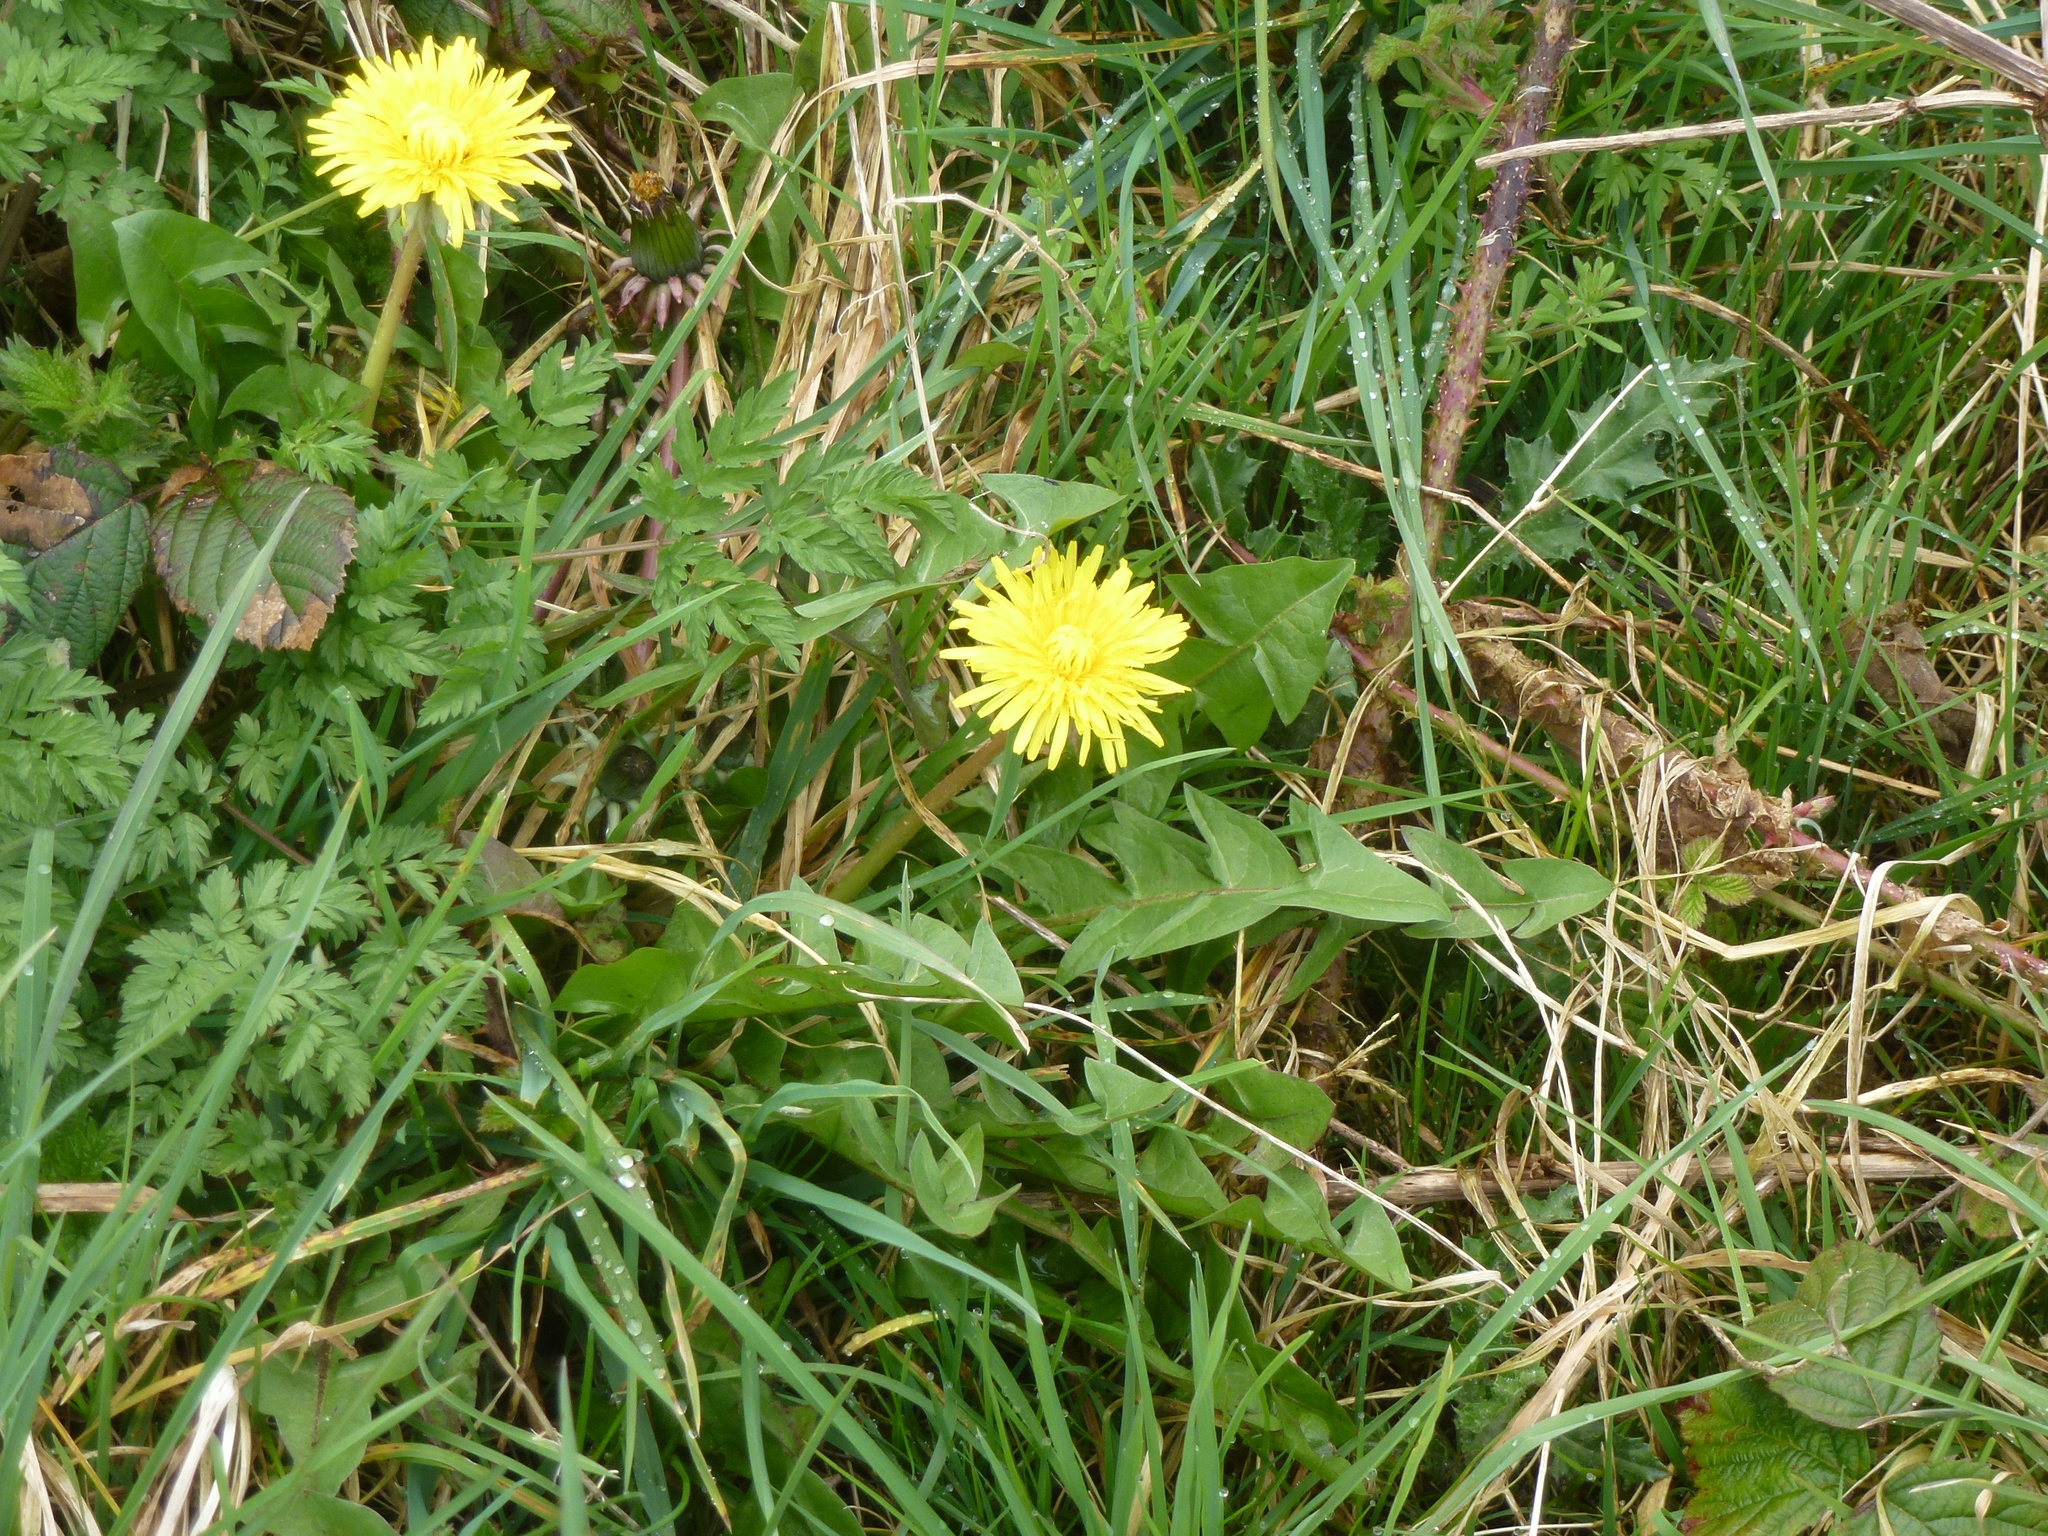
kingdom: Plantae
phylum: Tracheophyta
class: Magnoliopsida
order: Asterales
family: Asteraceae
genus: Taraxacum
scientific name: Taraxacum officinale
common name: Common dandelion
